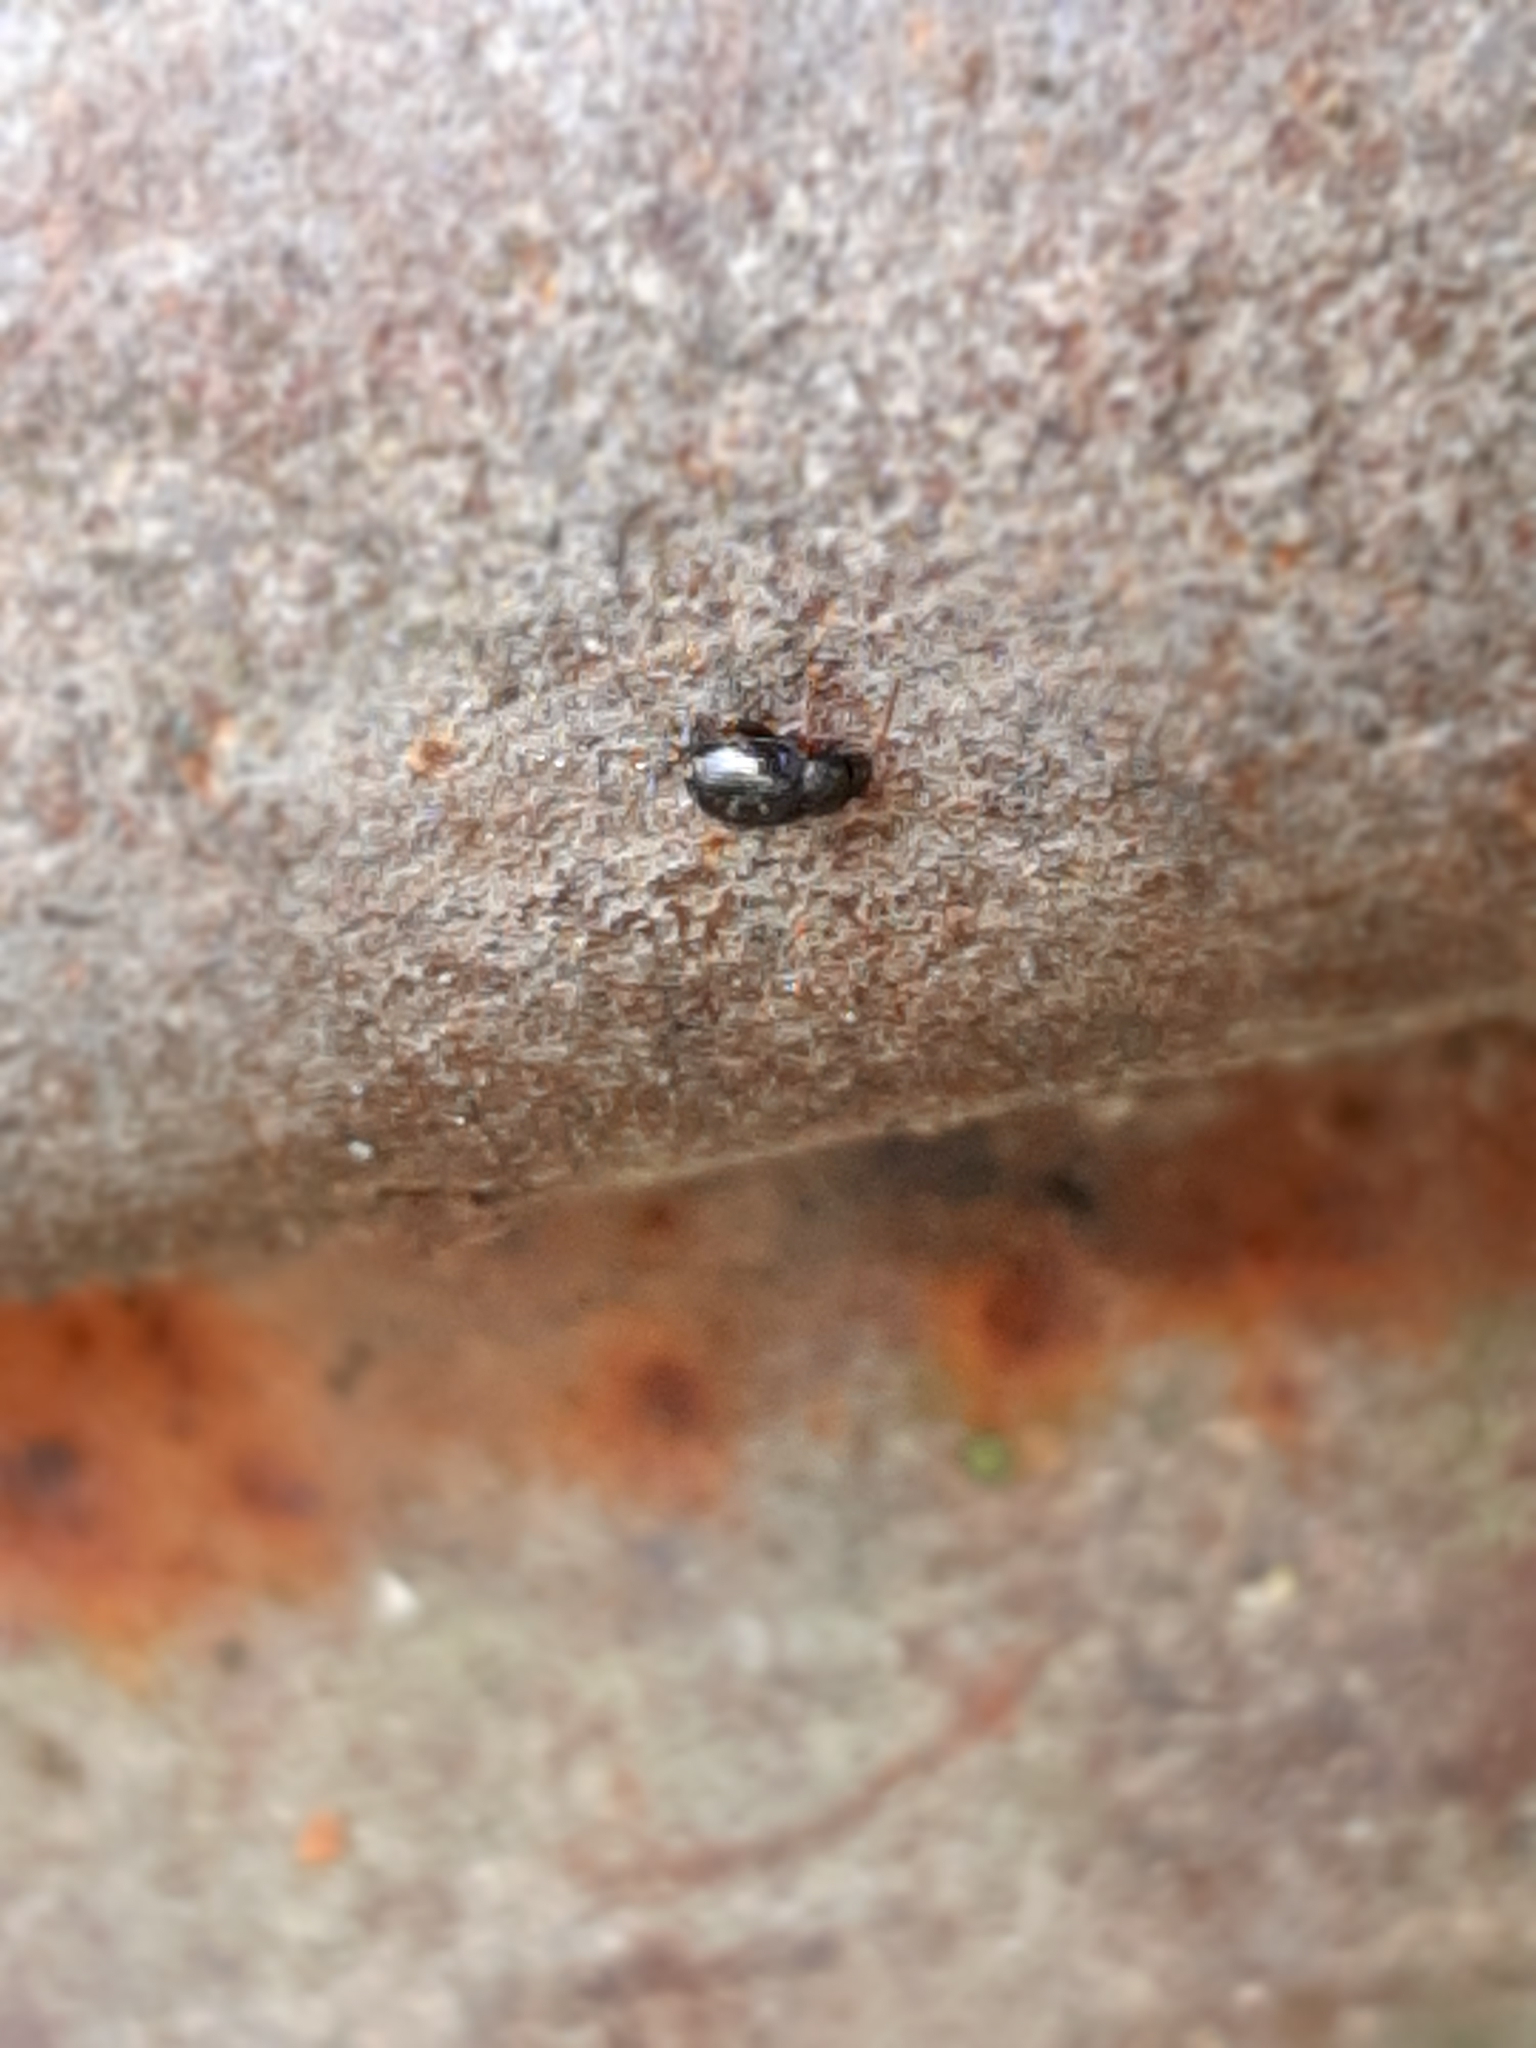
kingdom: Animalia
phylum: Arthropoda
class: Insecta
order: Coleoptera
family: Chrysomelidae
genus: Chaetocnema
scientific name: Chaetocnema
